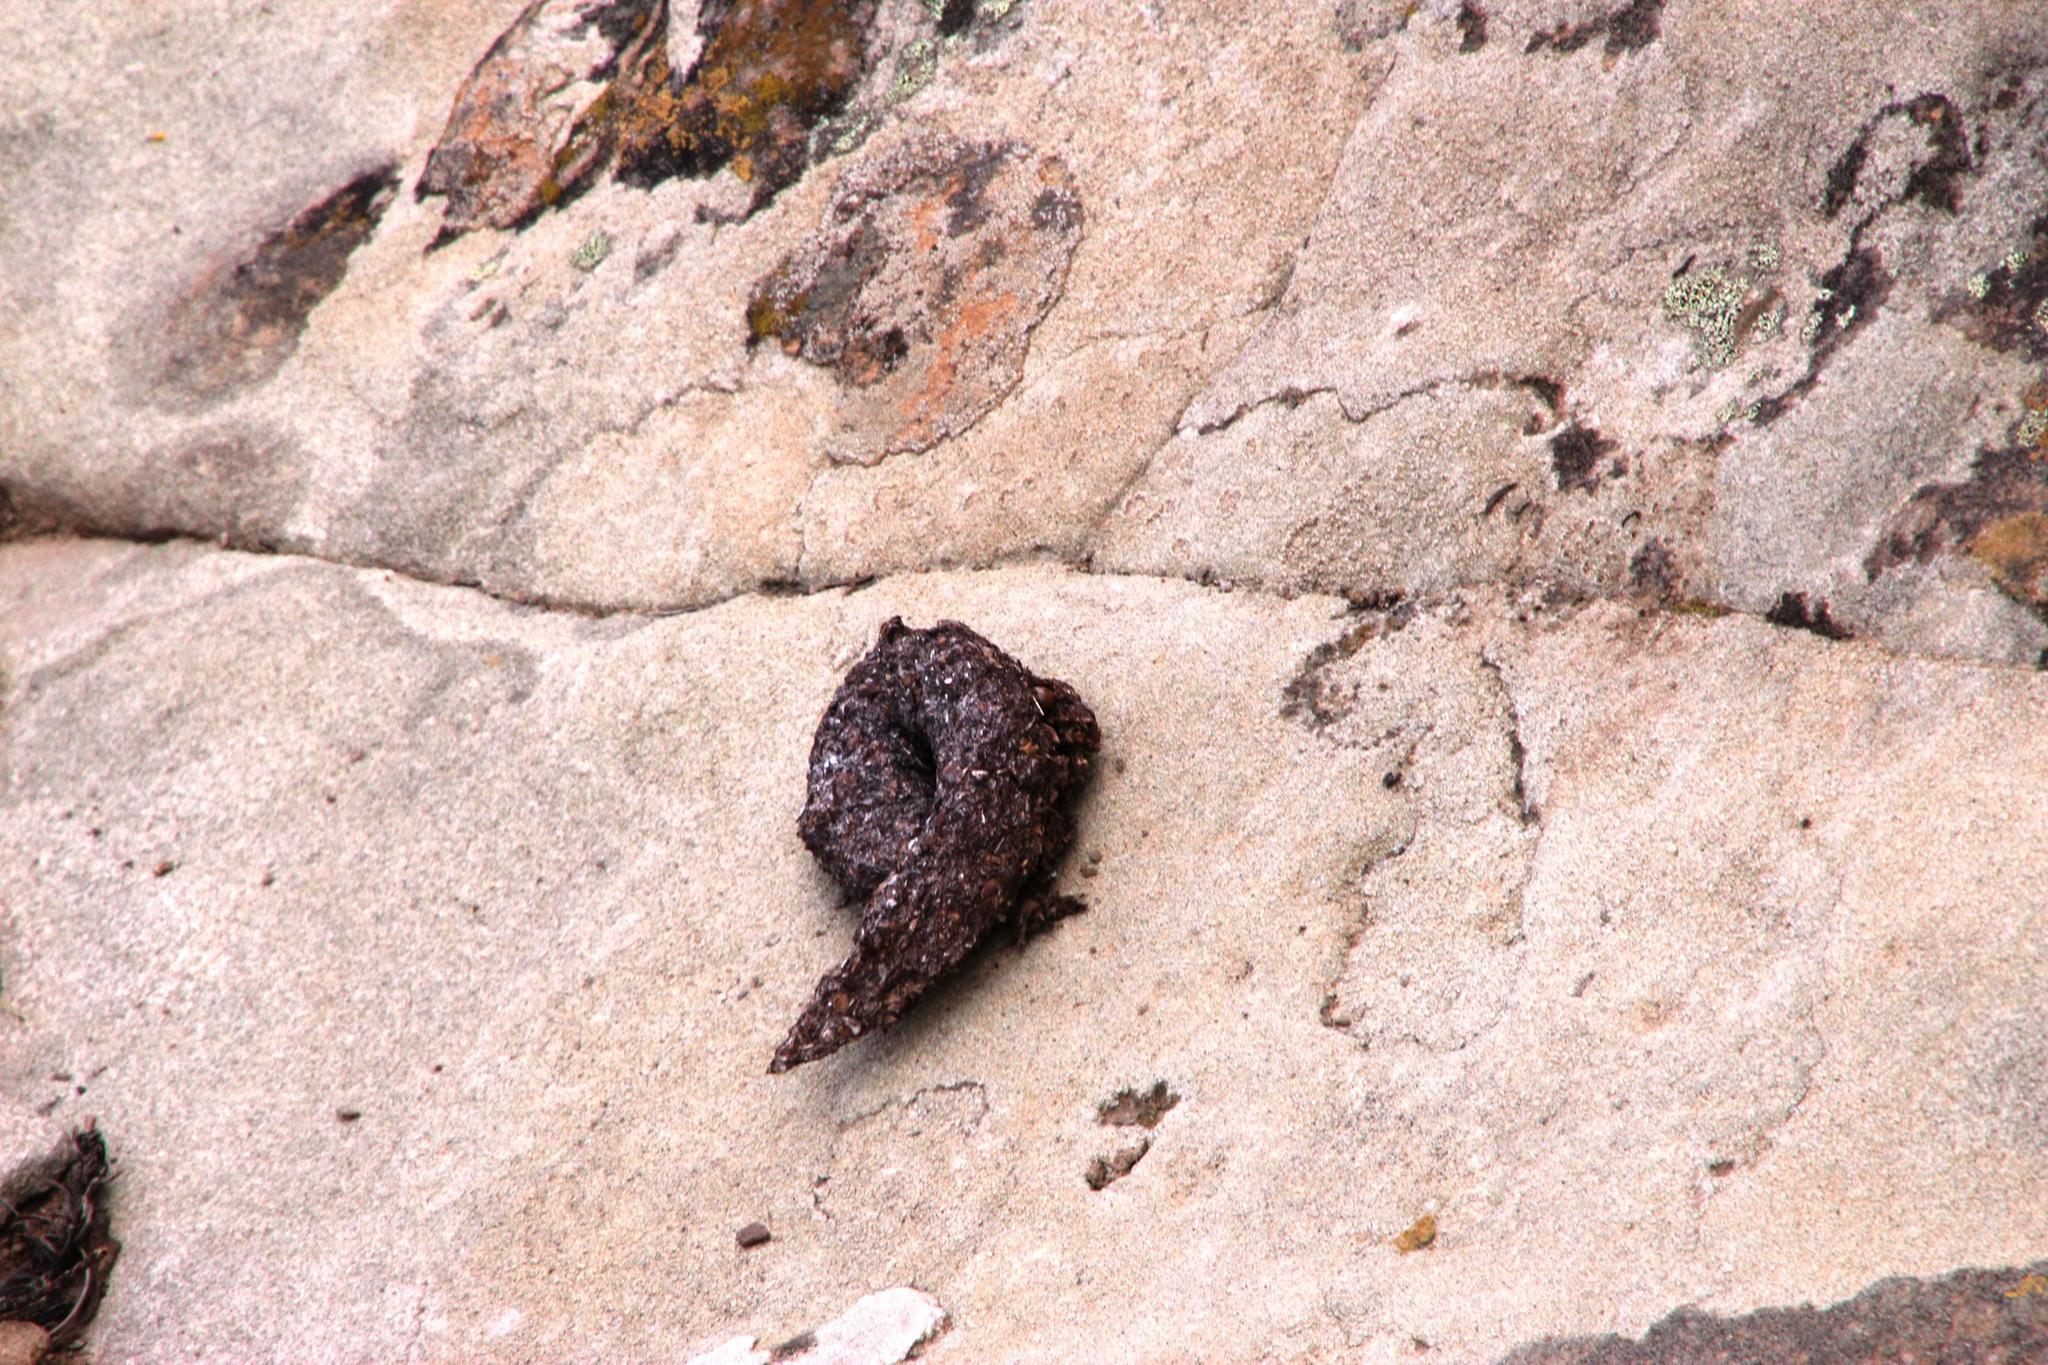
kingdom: Animalia
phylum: Chordata
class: Mammalia
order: Primates
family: Cercopithecidae
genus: Papio
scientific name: Papio ursinus
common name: Chacma baboon
